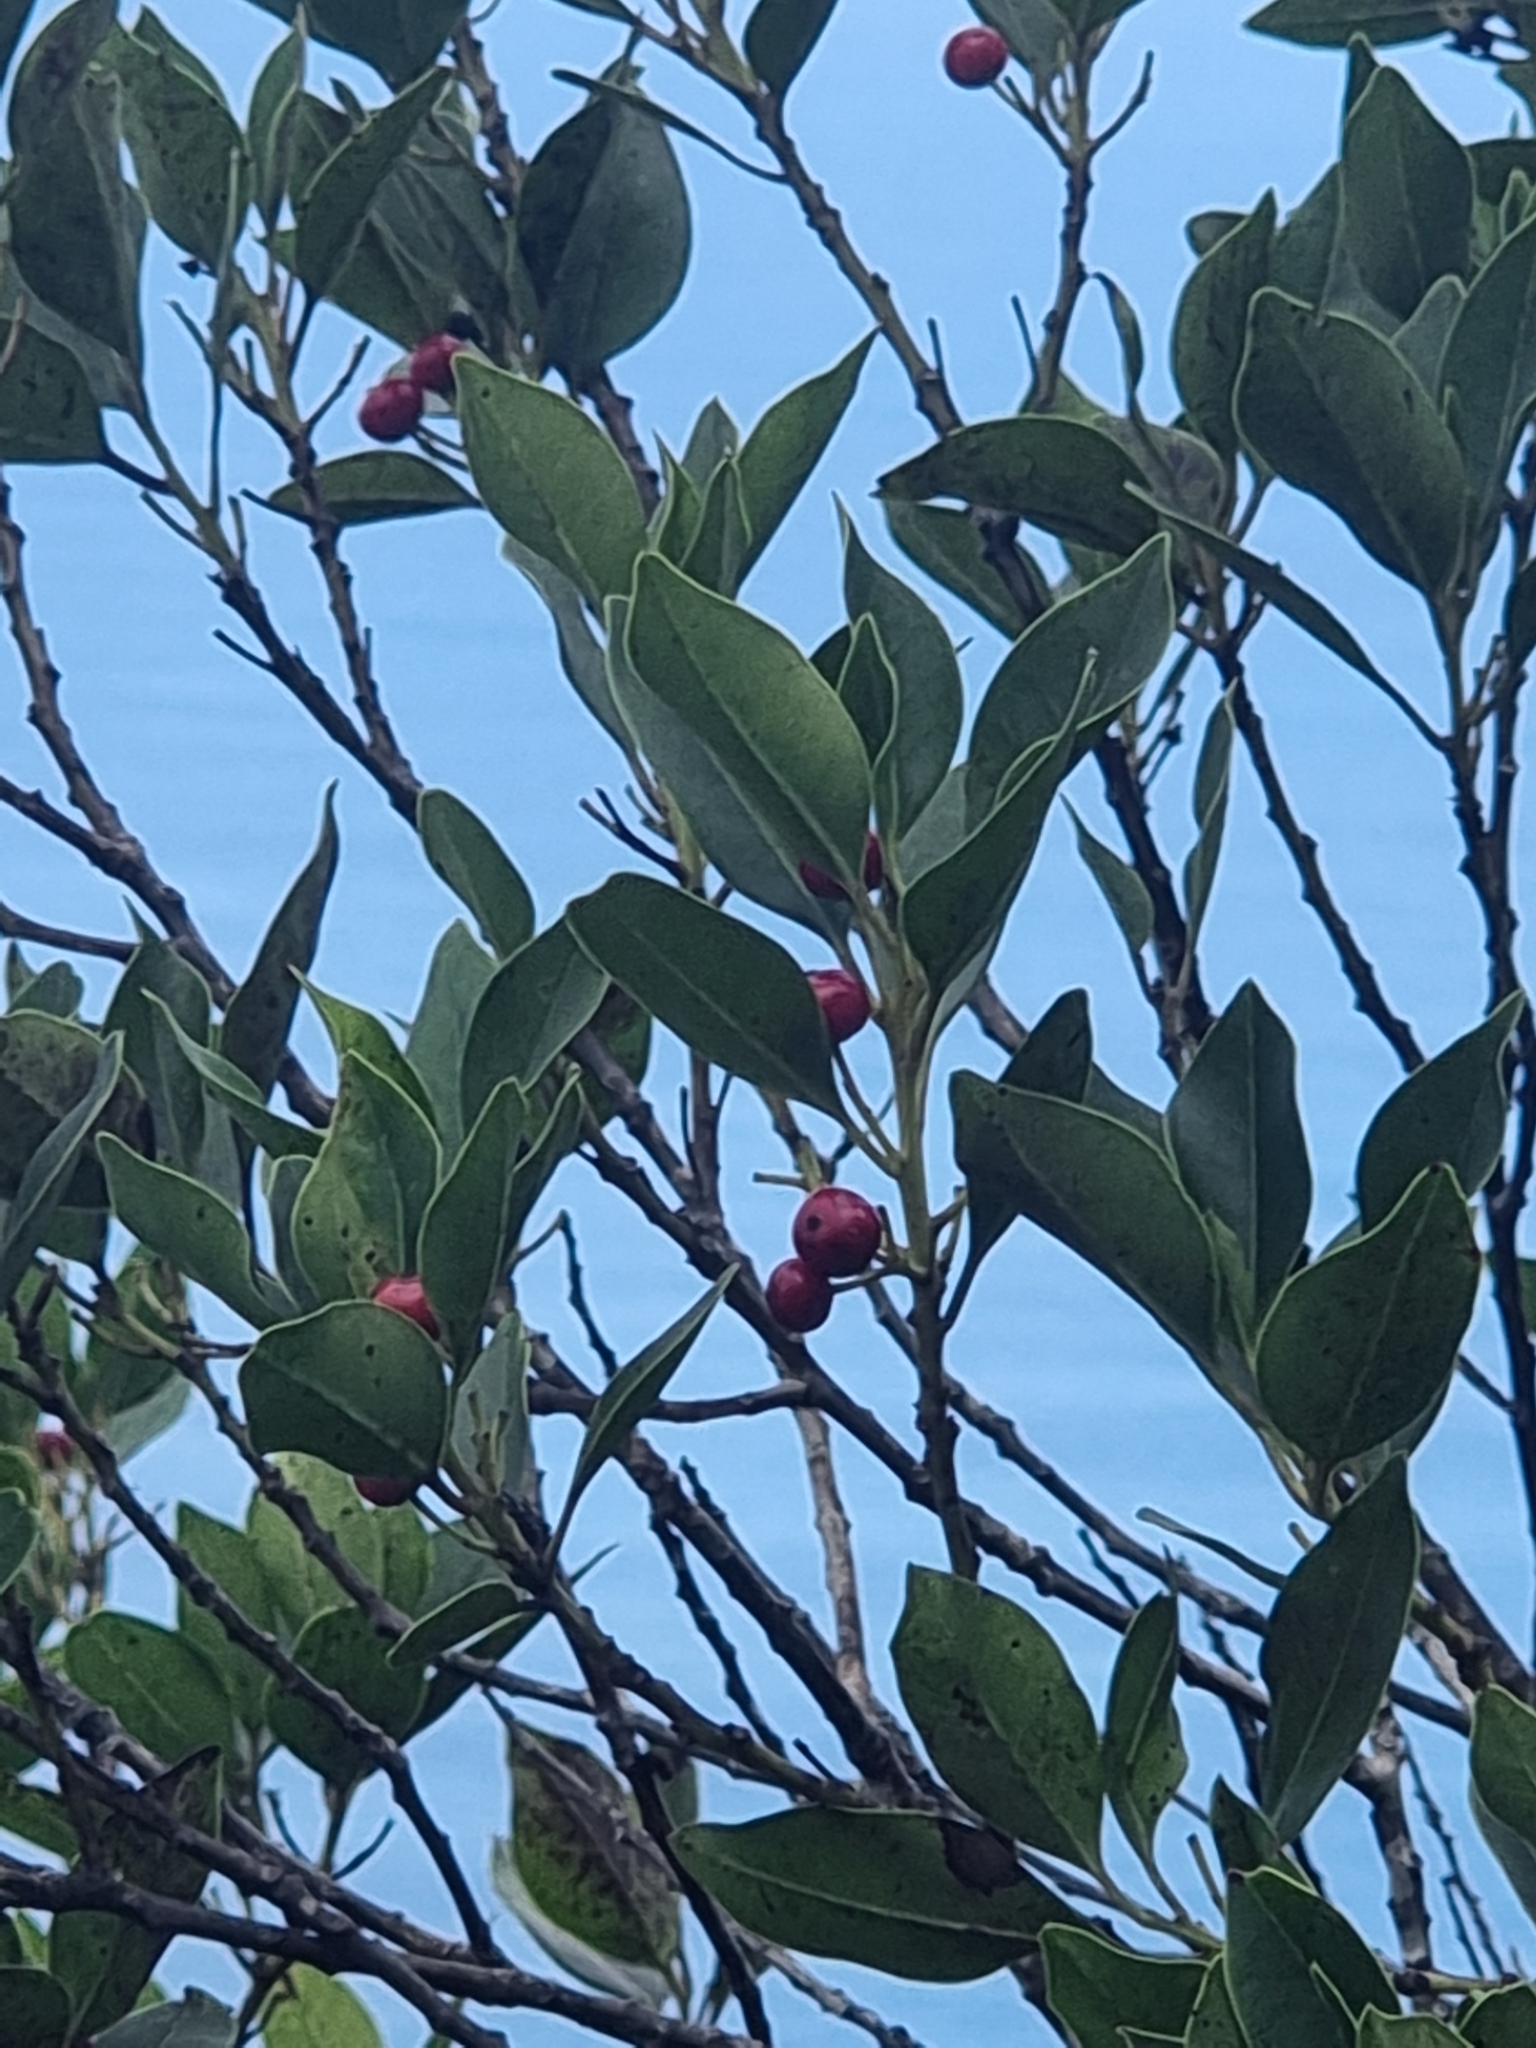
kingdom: Plantae
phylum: Tracheophyta
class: Magnoliopsida
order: Aquifoliales
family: Aquifoliaceae
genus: Ilex
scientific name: Ilex canariensis
